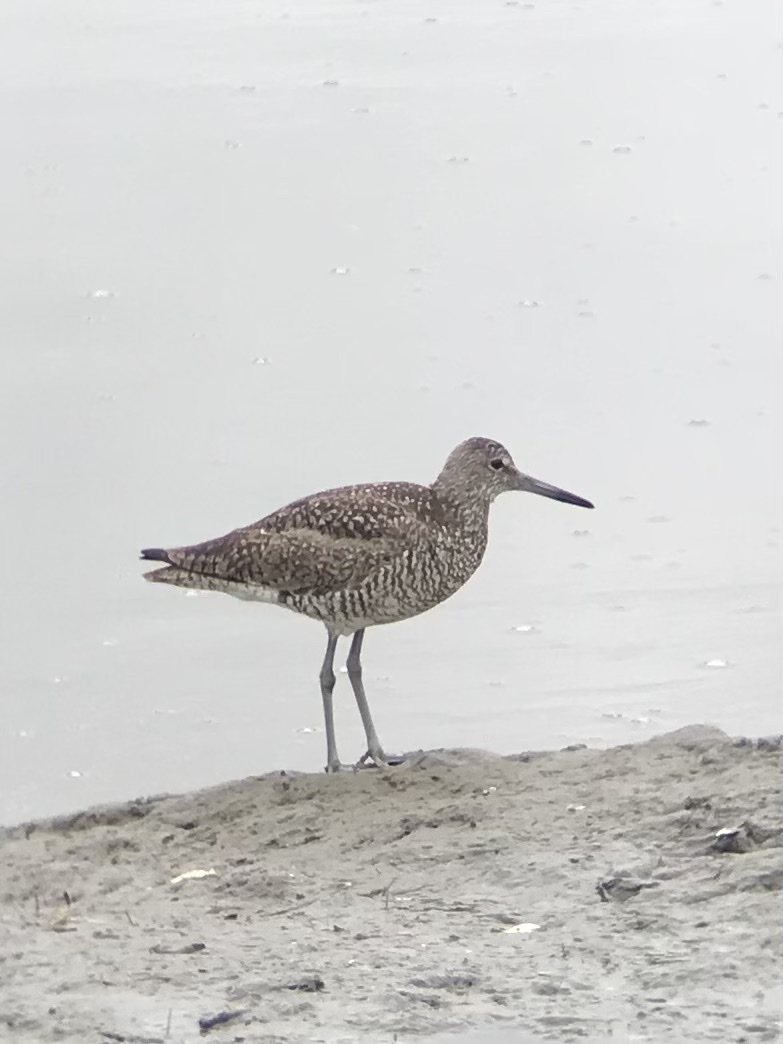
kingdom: Animalia
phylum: Chordata
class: Aves
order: Charadriiformes
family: Scolopacidae
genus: Tringa
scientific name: Tringa semipalmata
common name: Willet
